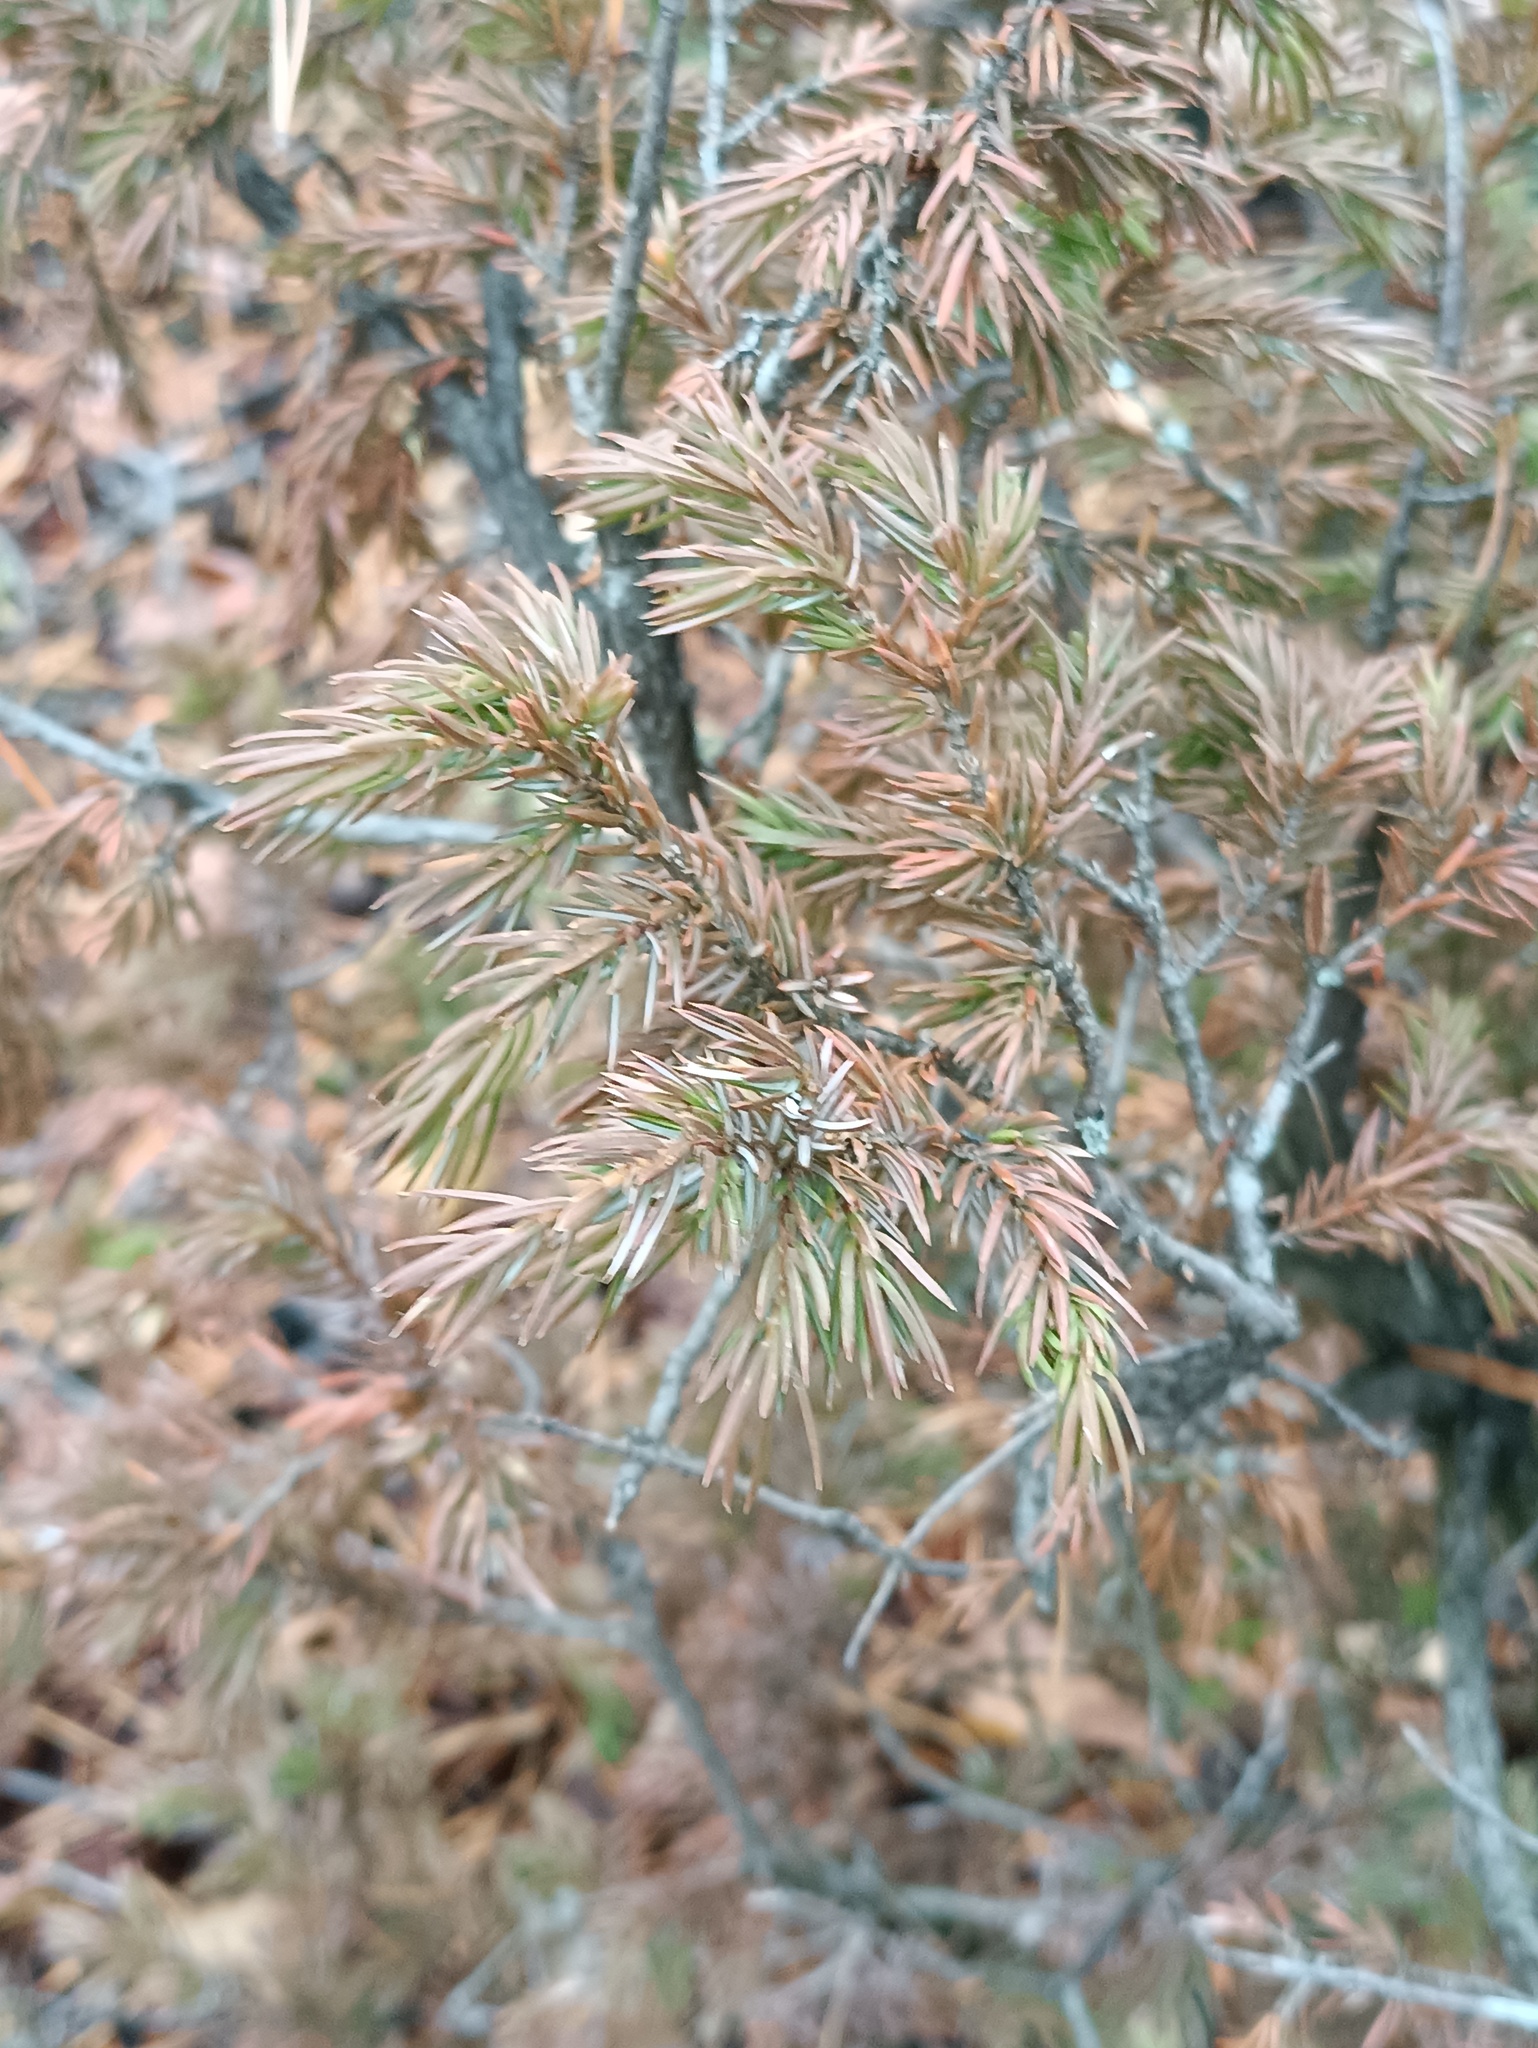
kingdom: Plantae
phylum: Tracheophyta
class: Pinopsida
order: Pinales
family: Cupressaceae
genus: Juniperus
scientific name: Juniperus communis
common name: Common juniper
